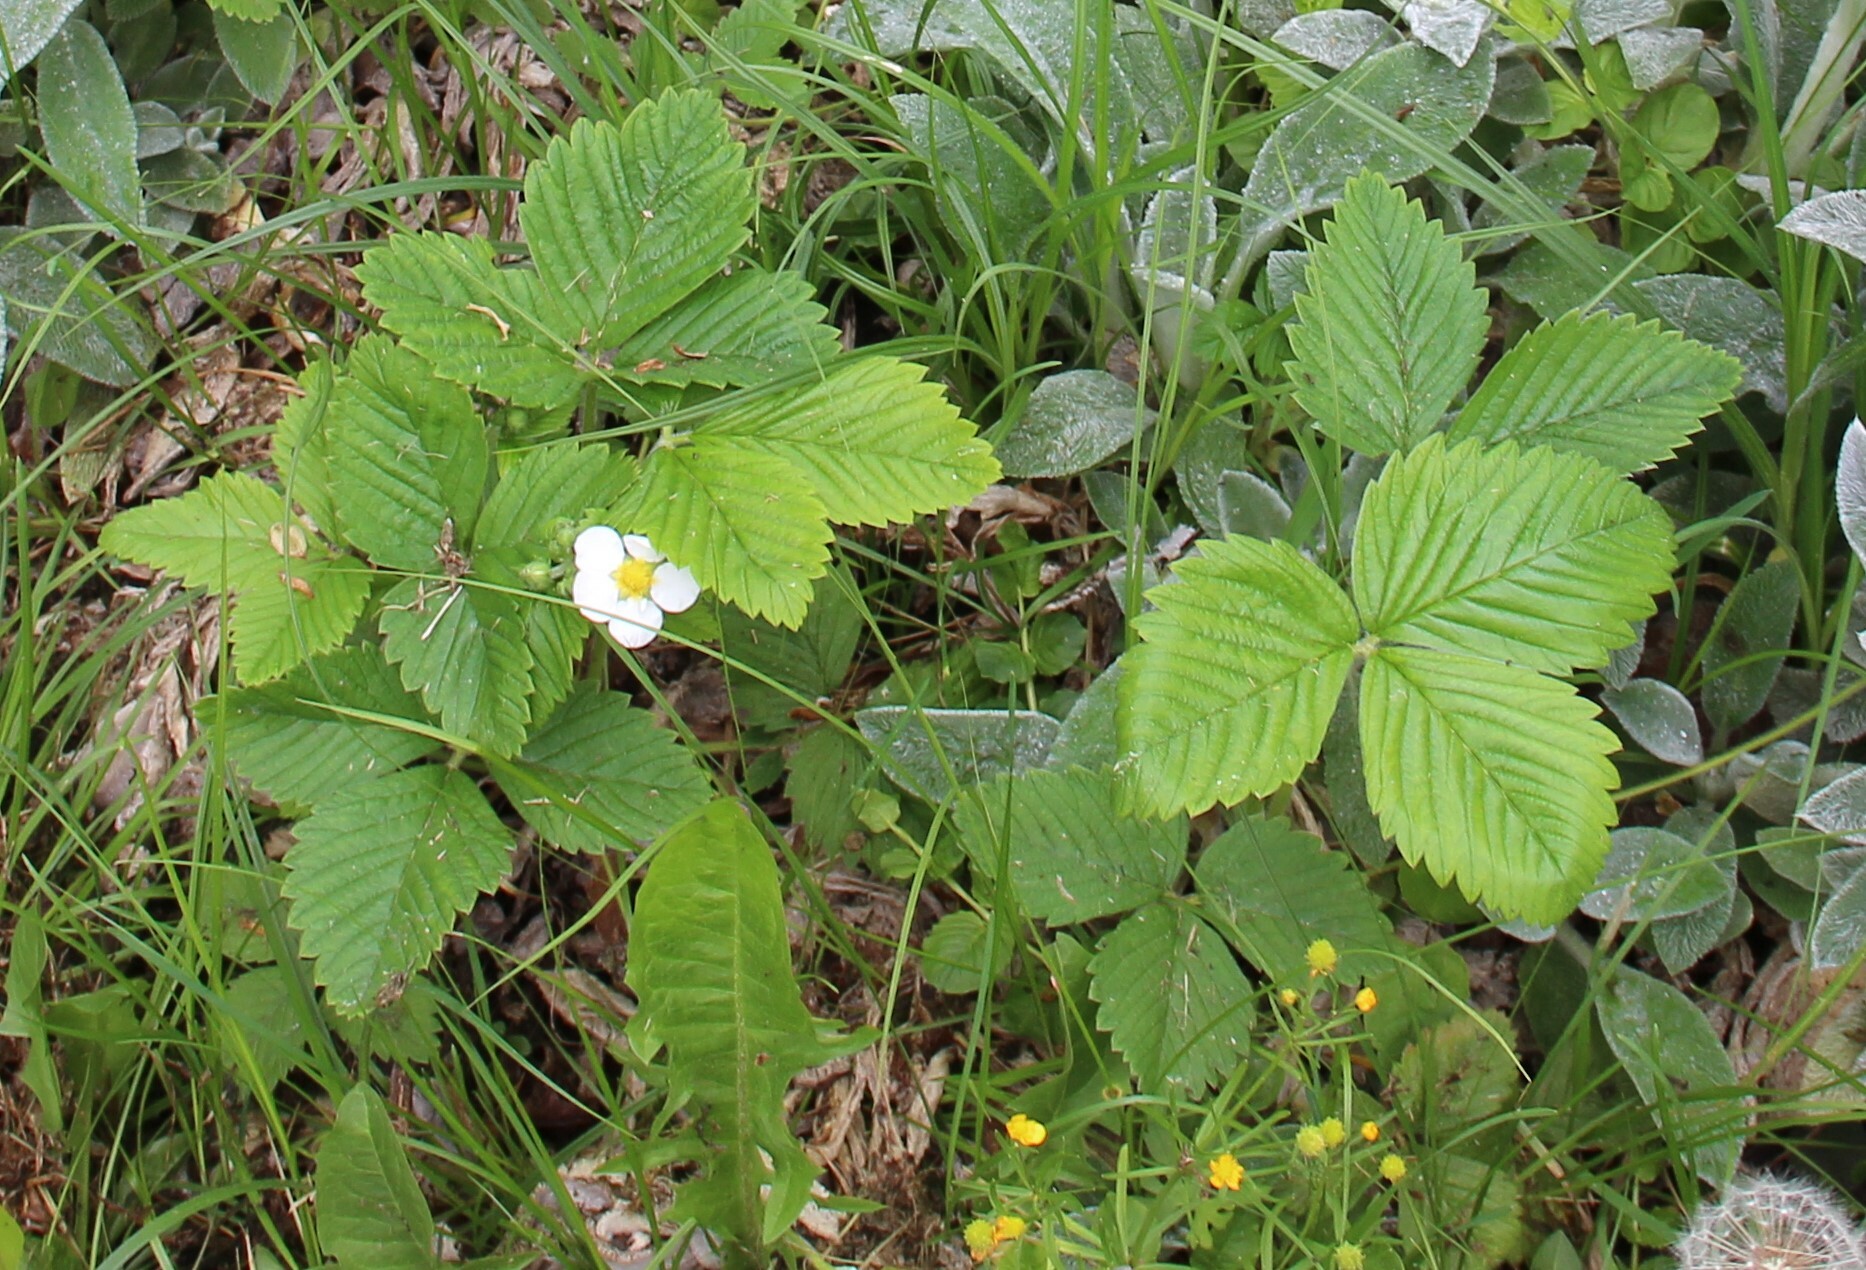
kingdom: Plantae
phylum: Tracheophyta
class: Magnoliopsida
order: Rosales
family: Rosaceae
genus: Fragaria
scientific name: Fragaria vesca
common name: Wild strawberry
